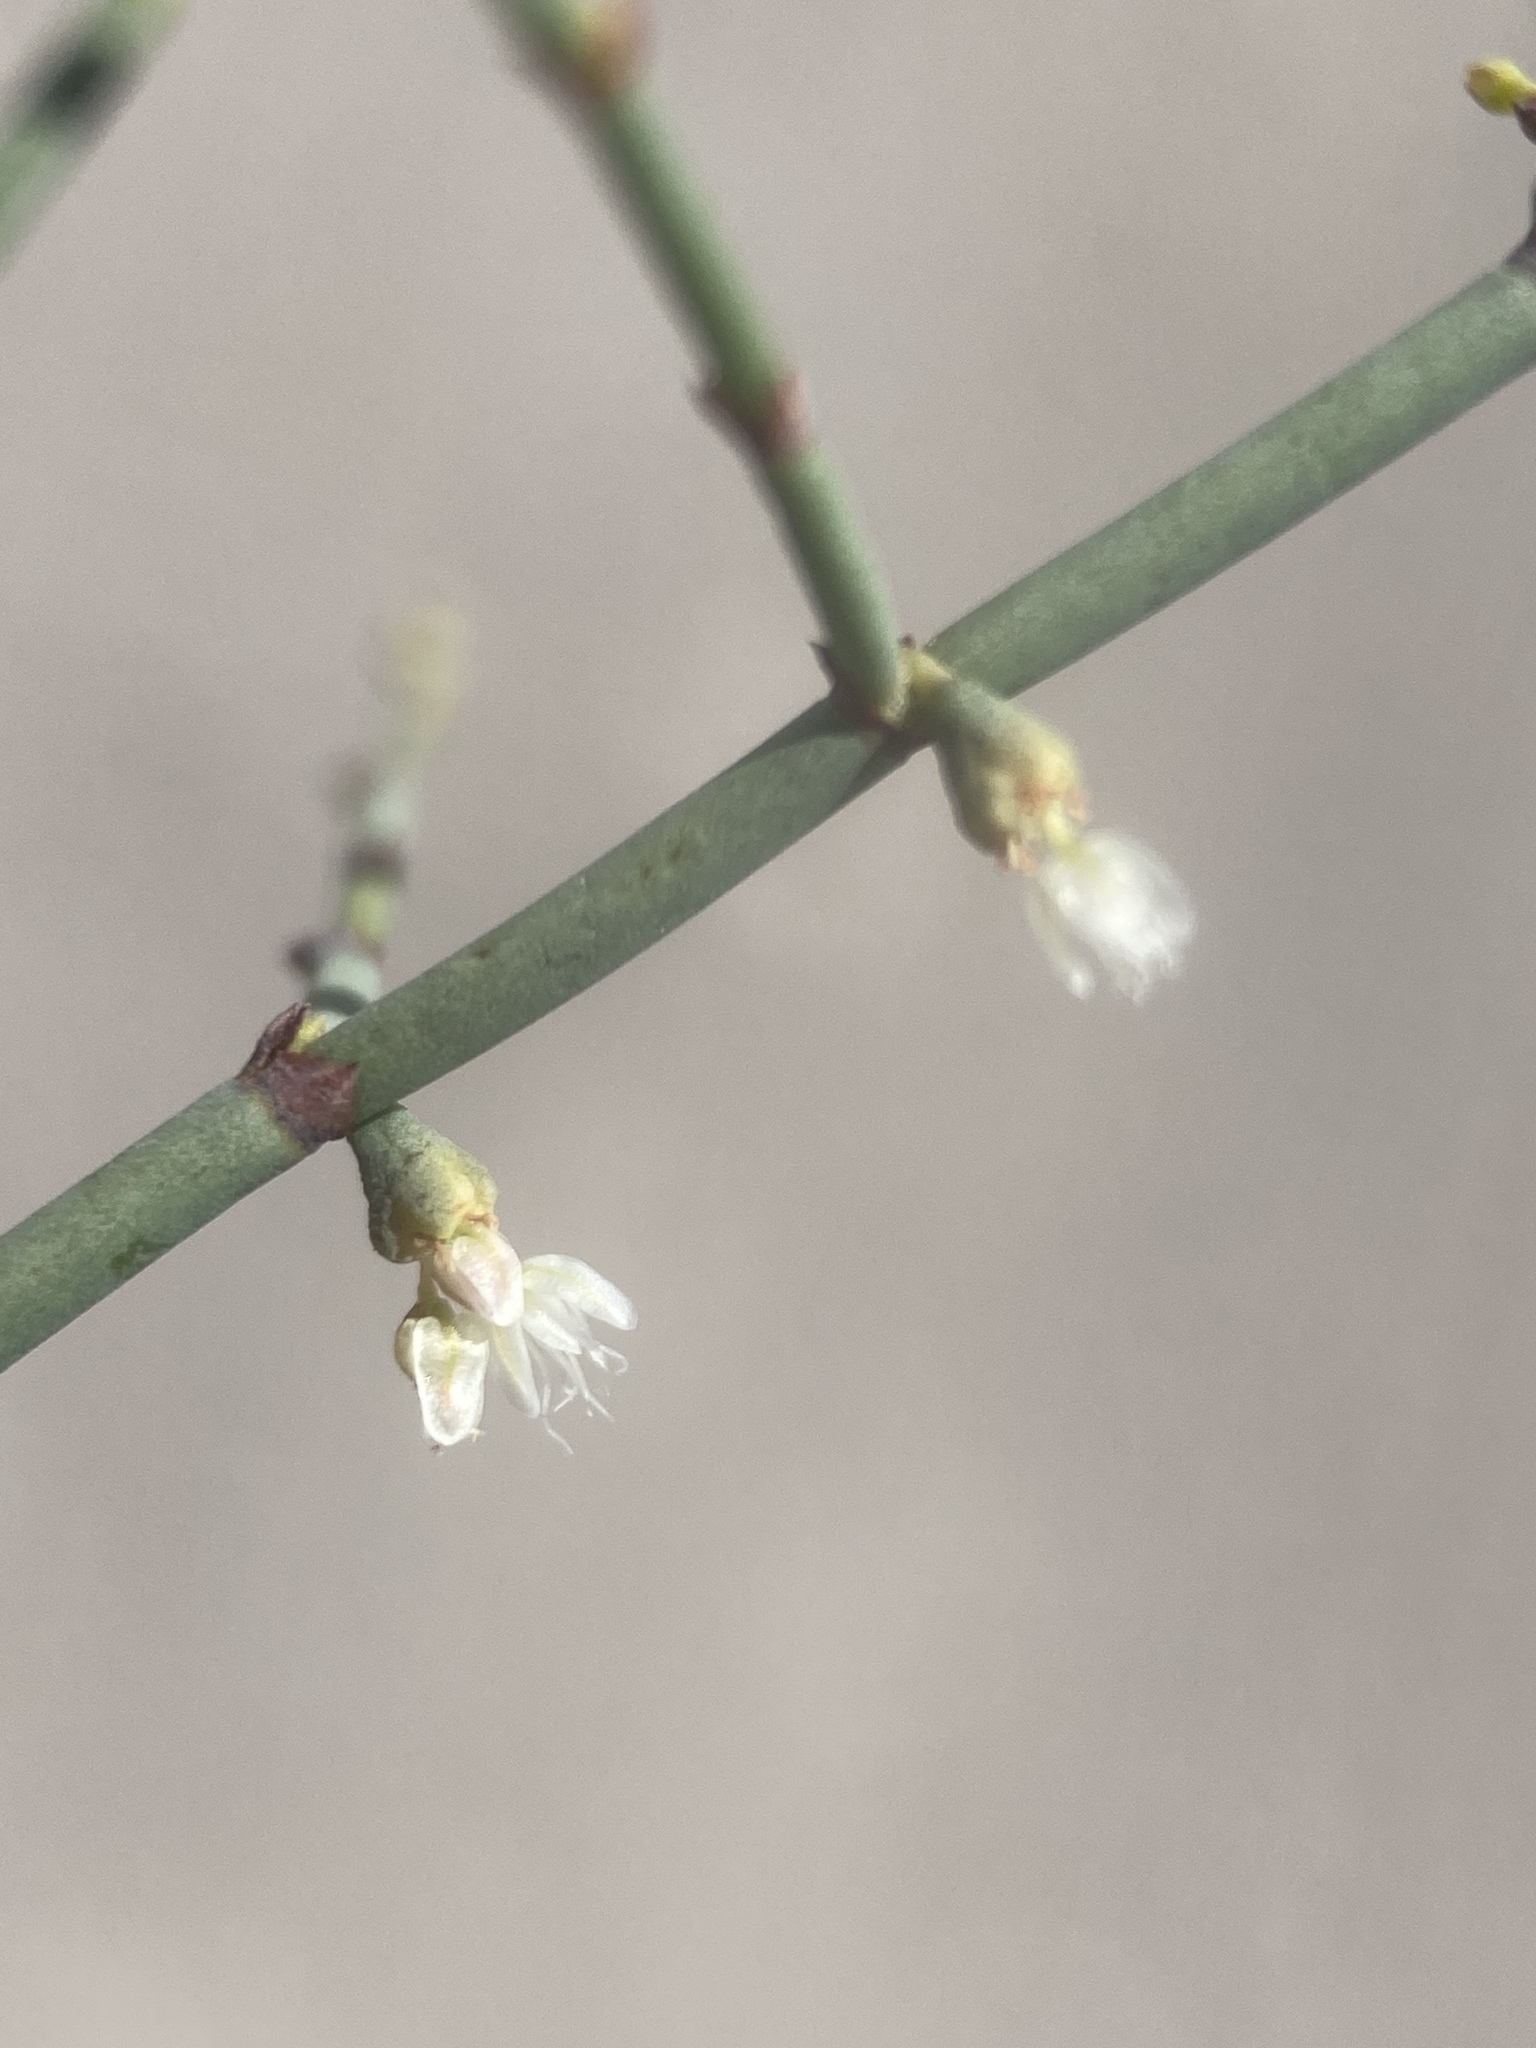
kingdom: Plantae
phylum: Tracheophyta
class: Magnoliopsida
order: Caryophyllales
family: Polygonaceae
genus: Eriogonum
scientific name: Eriogonum deflexum
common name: Skeleton-weed
